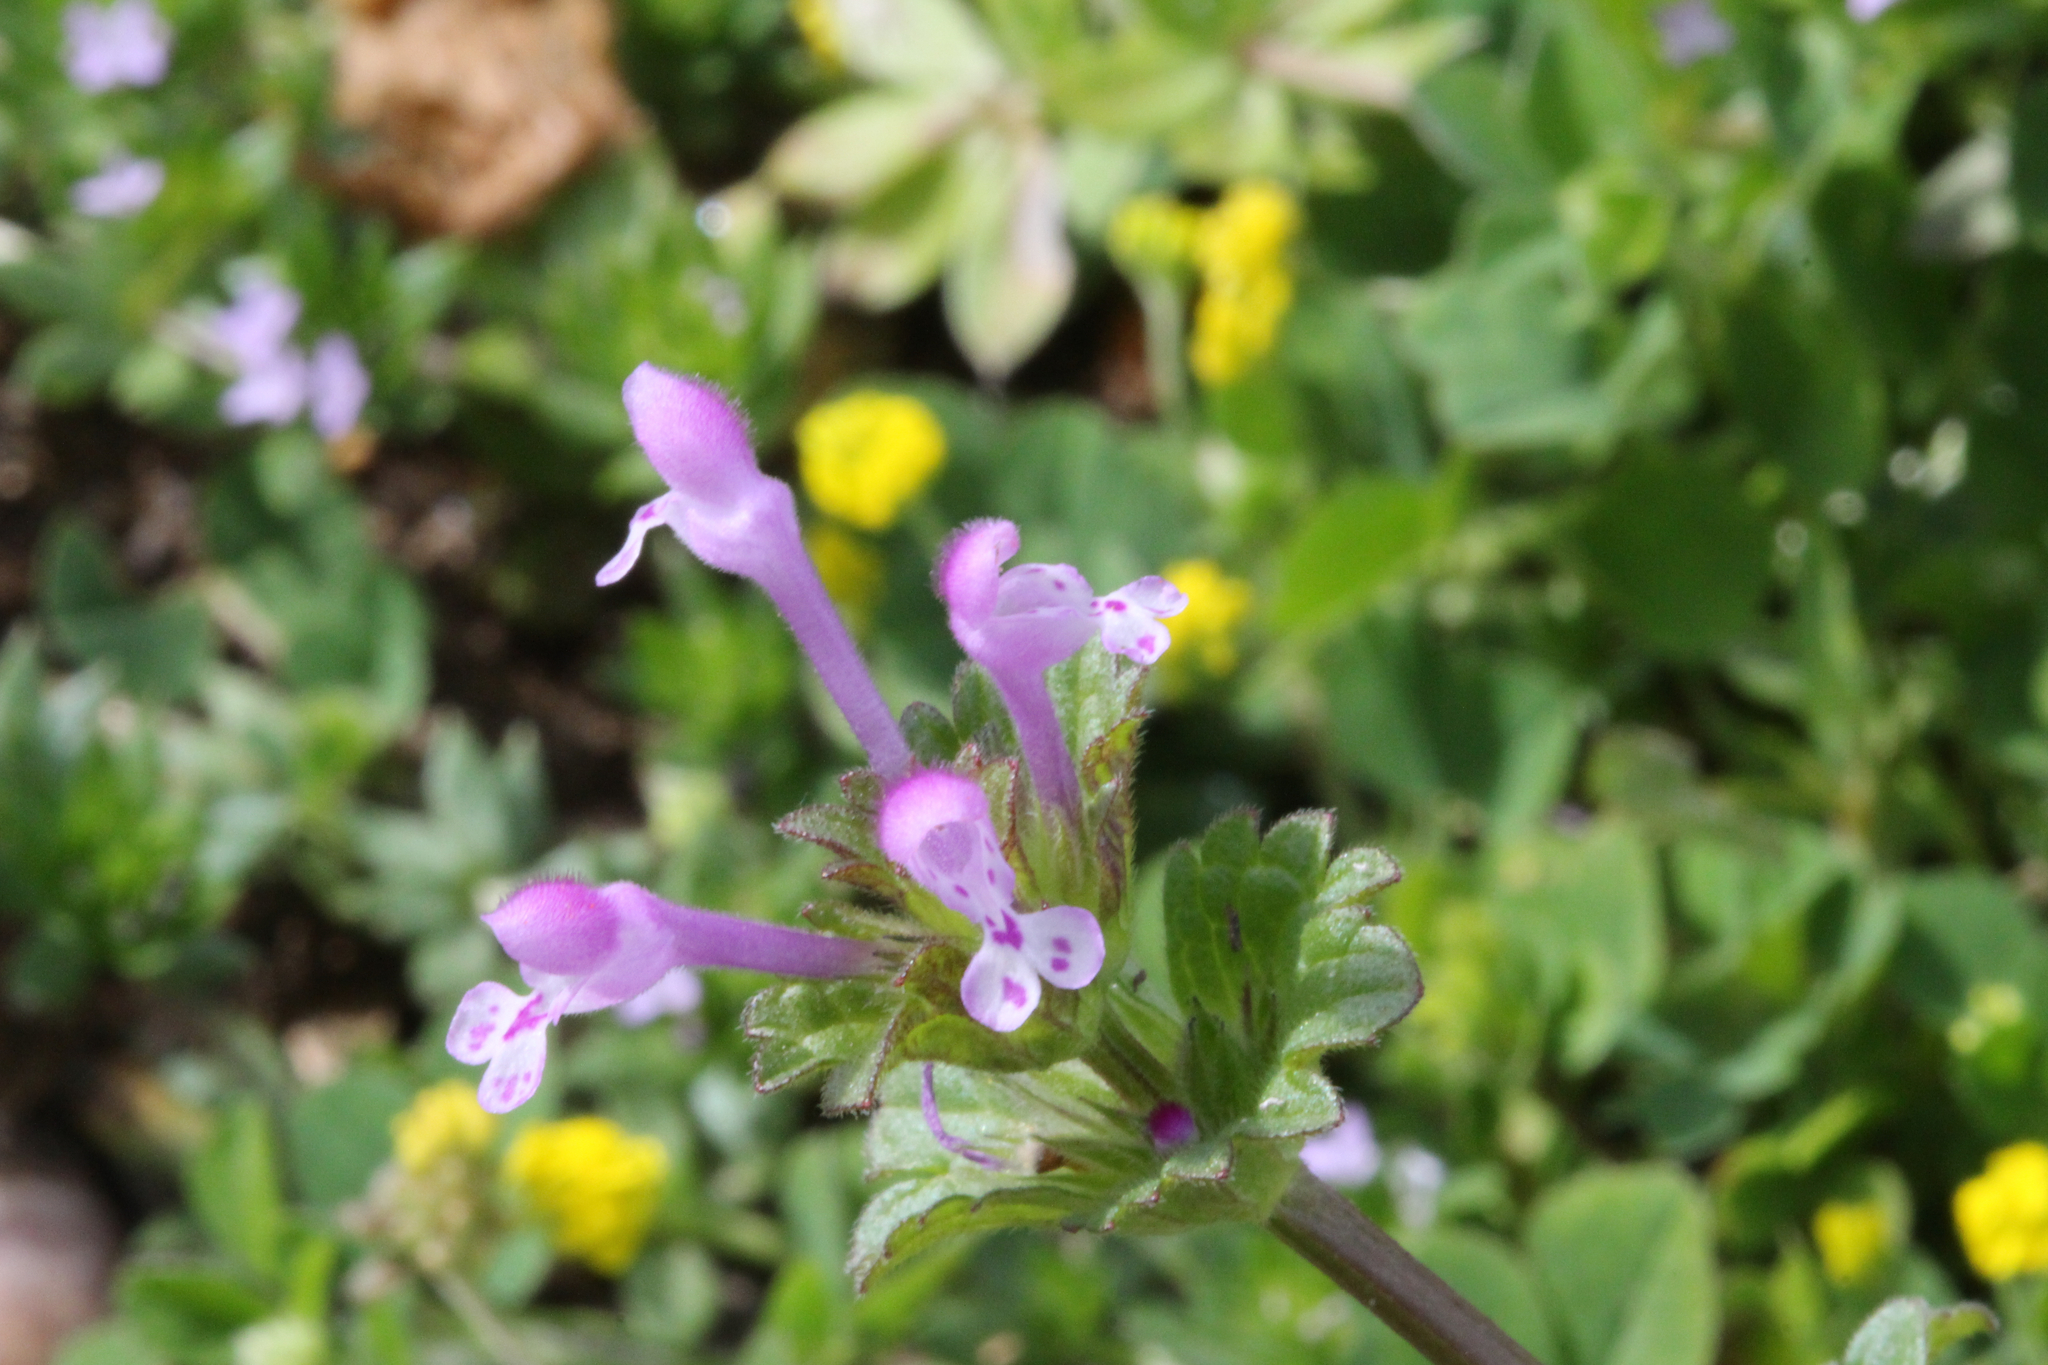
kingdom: Plantae
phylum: Tracheophyta
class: Magnoliopsida
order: Lamiales
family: Lamiaceae
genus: Lamium
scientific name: Lamium amplexicaule
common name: Henbit dead-nettle
